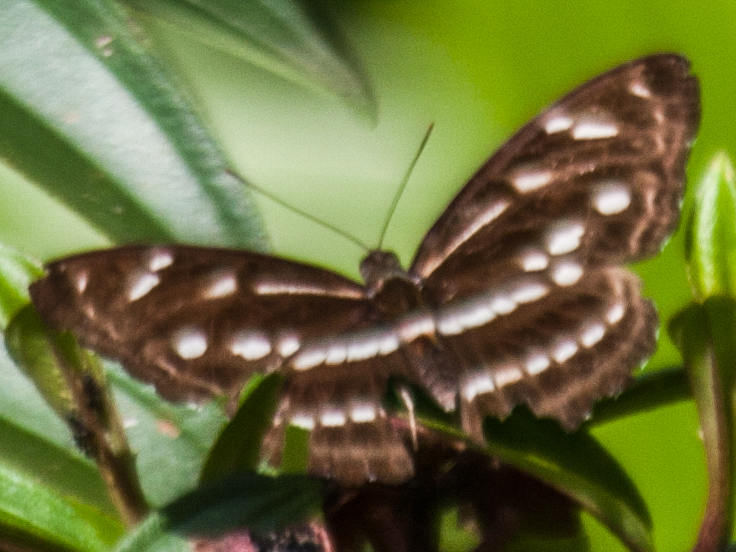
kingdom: Animalia
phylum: Arthropoda
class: Insecta
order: Lepidoptera
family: Nymphalidae
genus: Parathyma
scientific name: Parathyma kanwa
